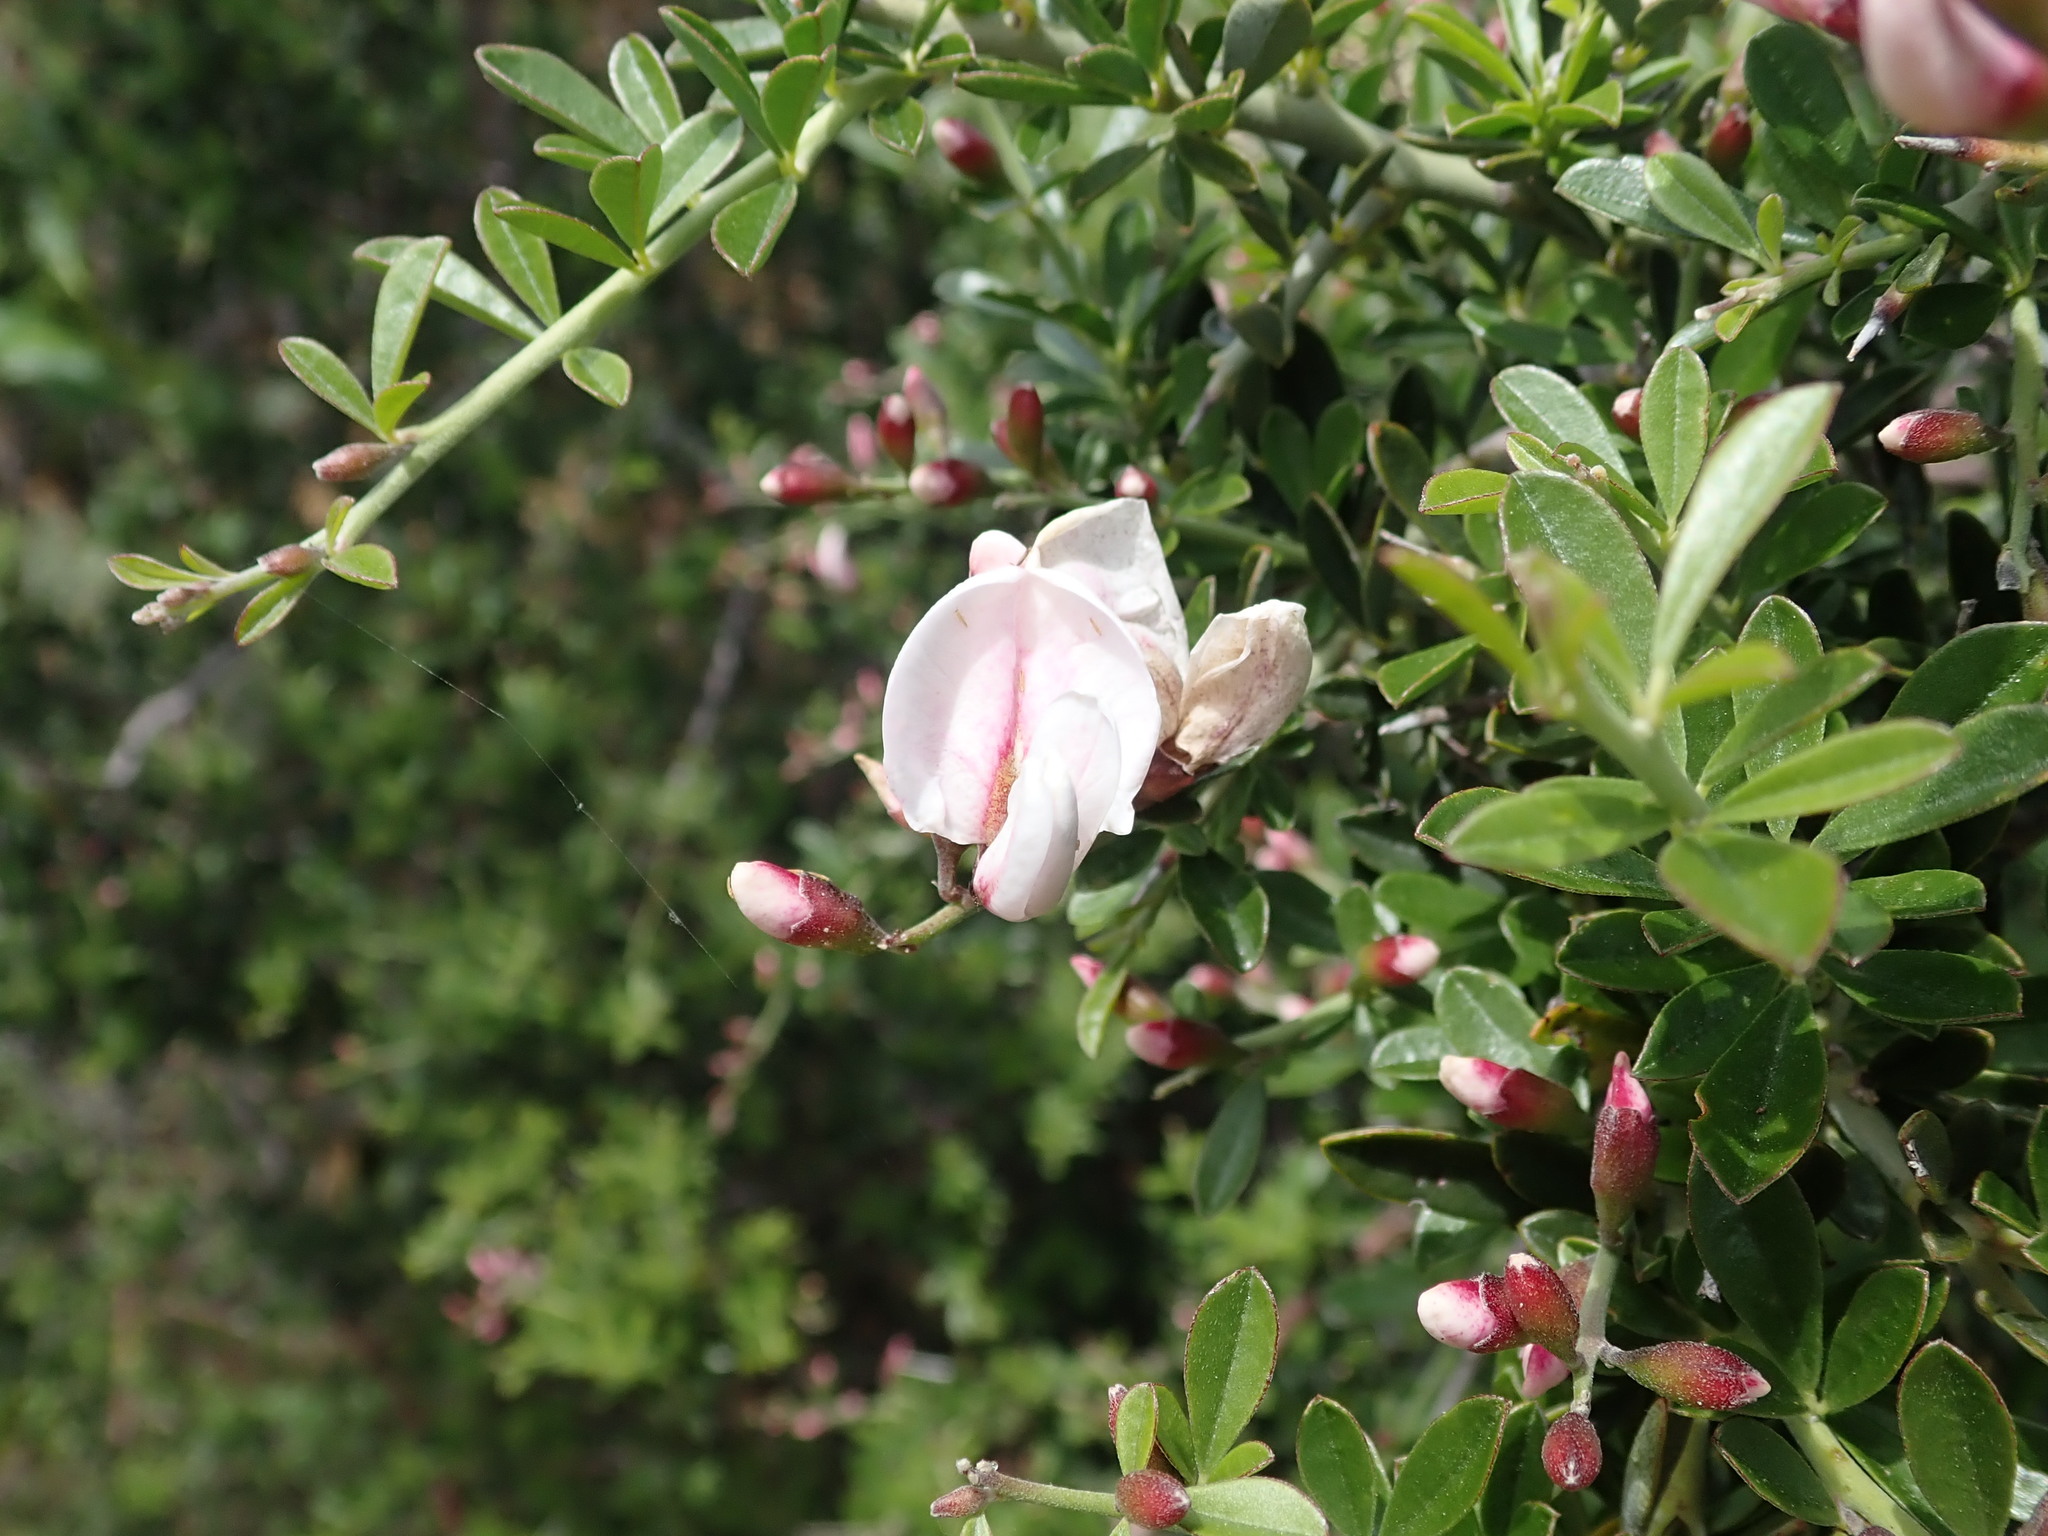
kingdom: Plantae
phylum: Tracheophyta
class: Magnoliopsida
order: Fabales
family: Fabaceae
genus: Pickeringia
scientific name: Pickeringia montana
